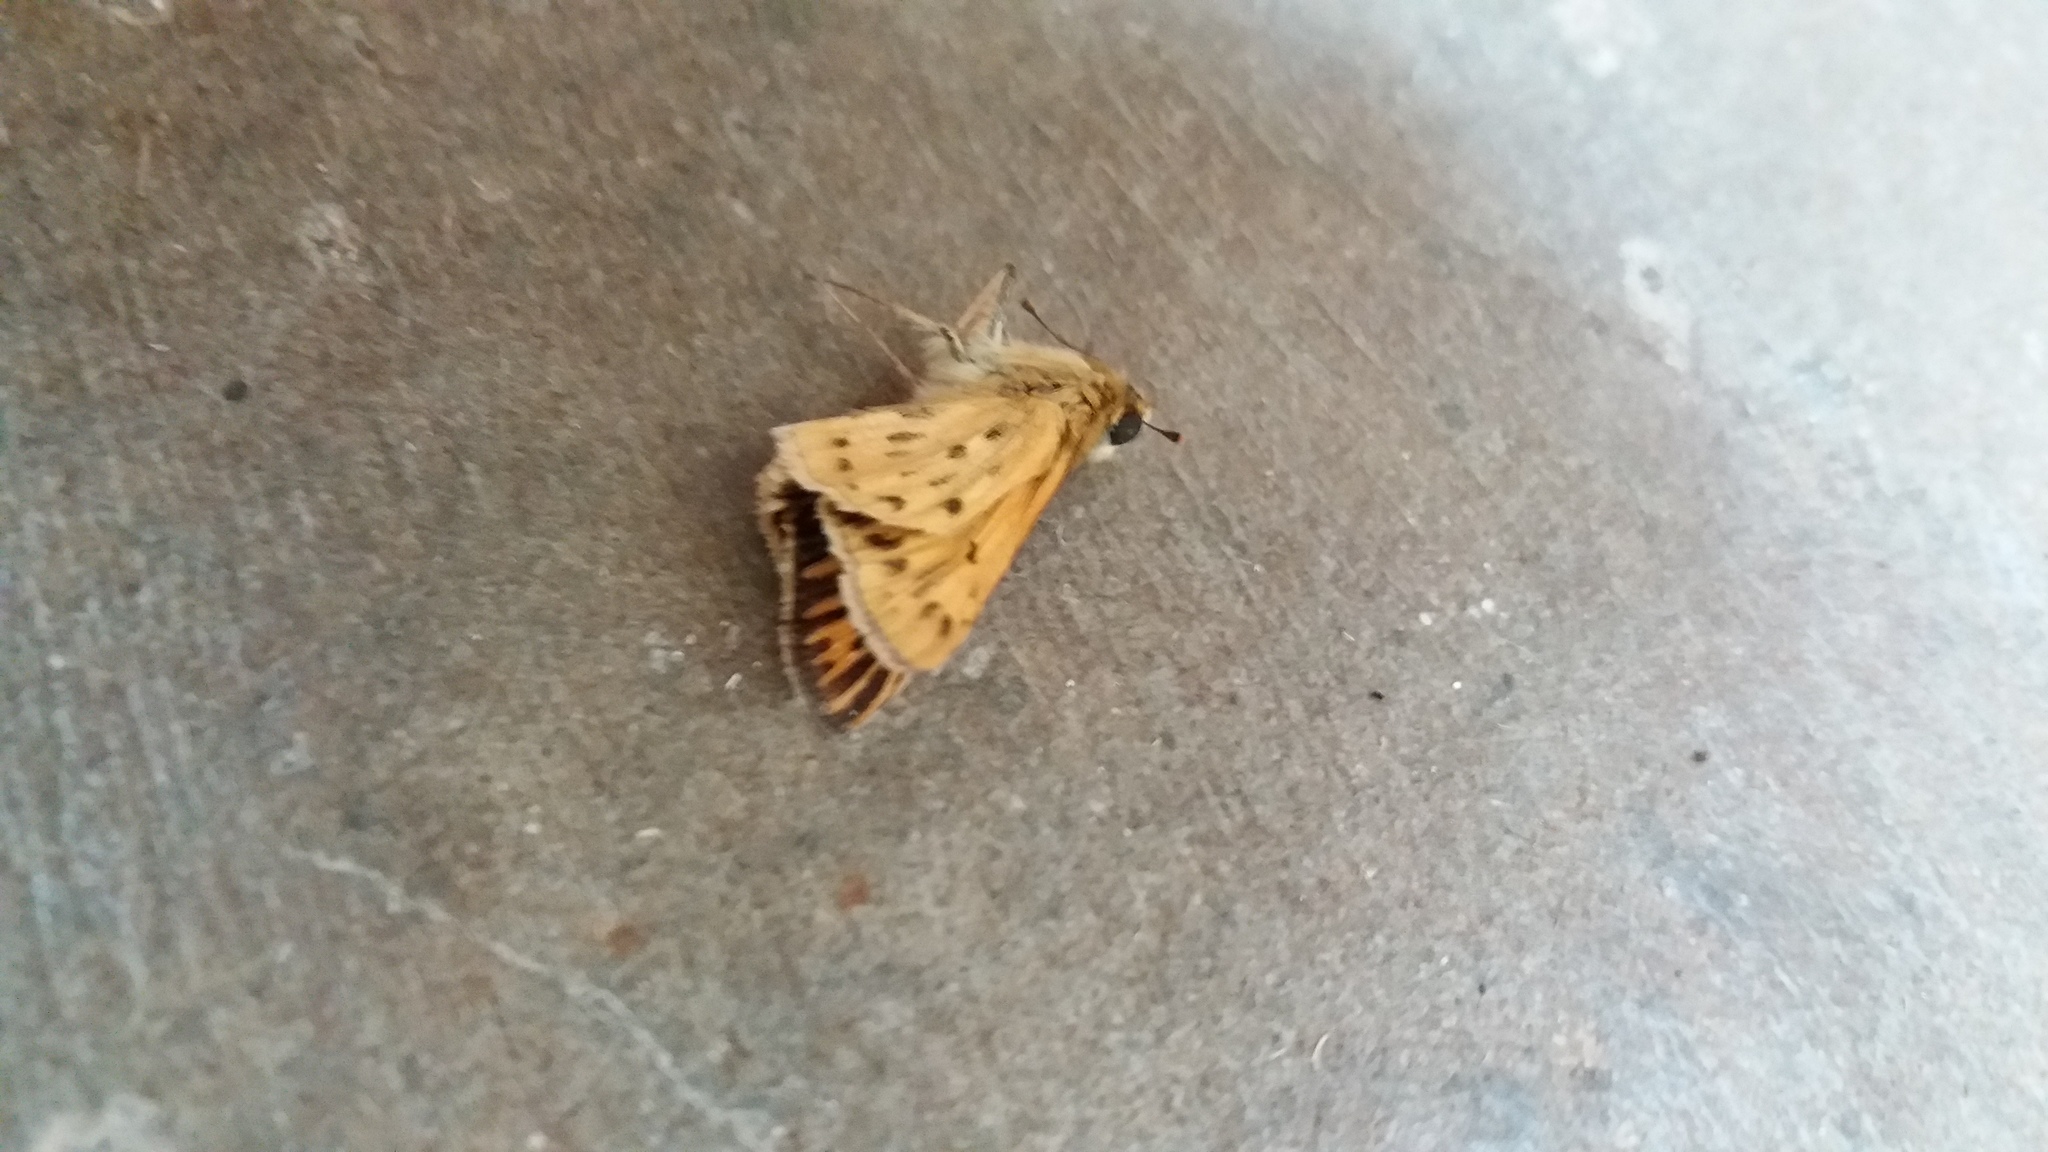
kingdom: Animalia
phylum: Arthropoda
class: Insecta
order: Lepidoptera
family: Hesperiidae
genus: Hylephila
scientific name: Hylephila phyleus
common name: Fiery skipper
